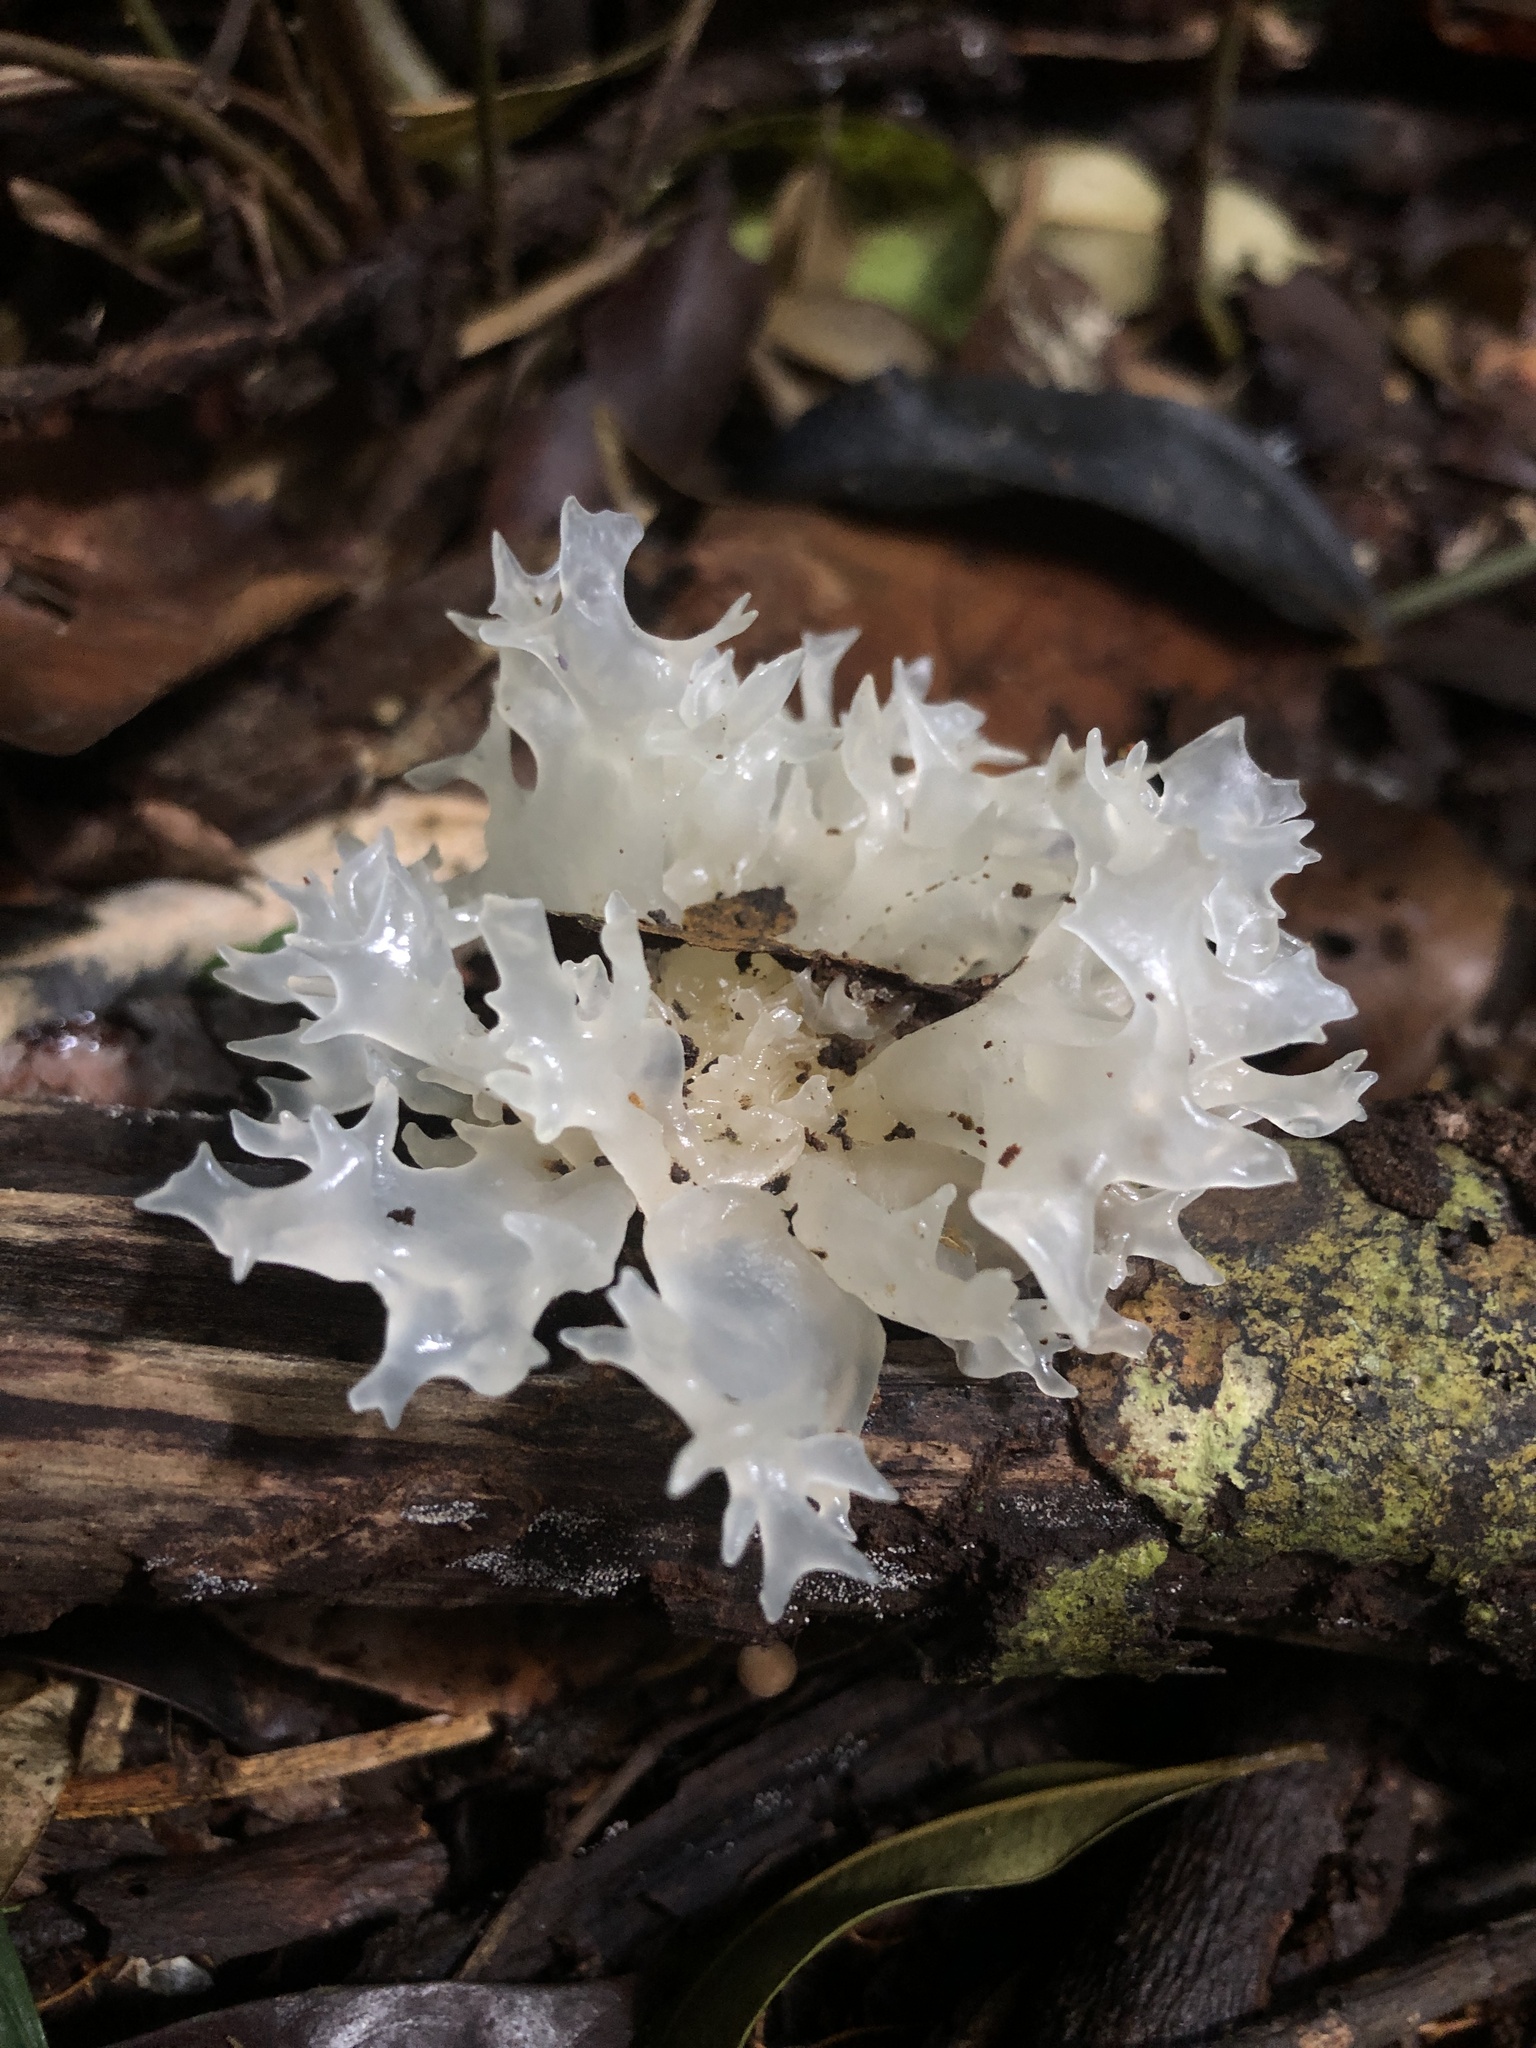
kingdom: Fungi
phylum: Basidiomycota
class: Tremellomycetes
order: Tremellales
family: Tremellaceae
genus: Tremella
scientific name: Tremella fuciformis
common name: Snow fungus
